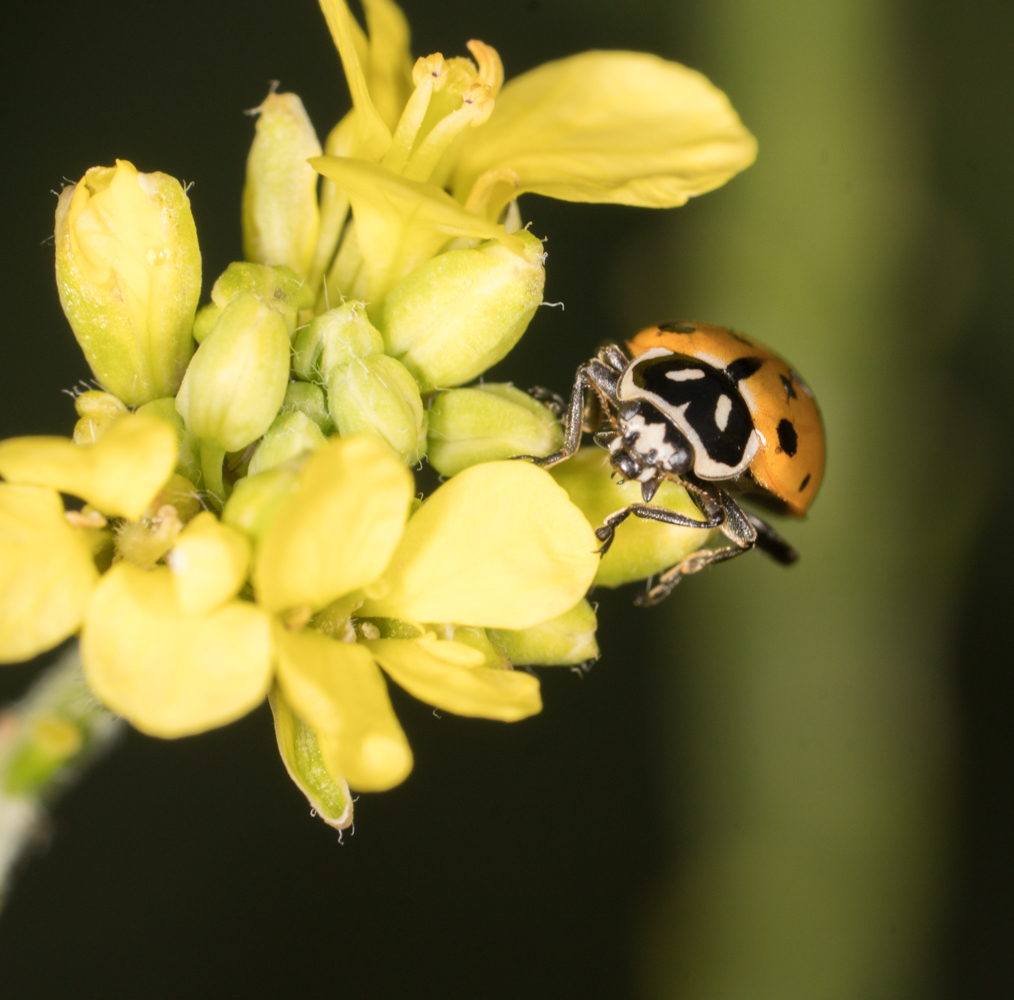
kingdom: Animalia
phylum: Arthropoda
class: Insecta
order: Coleoptera
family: Coccinellidae
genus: Hippodamia
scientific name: Hippodamia convergens
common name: Convergent lady beetle
